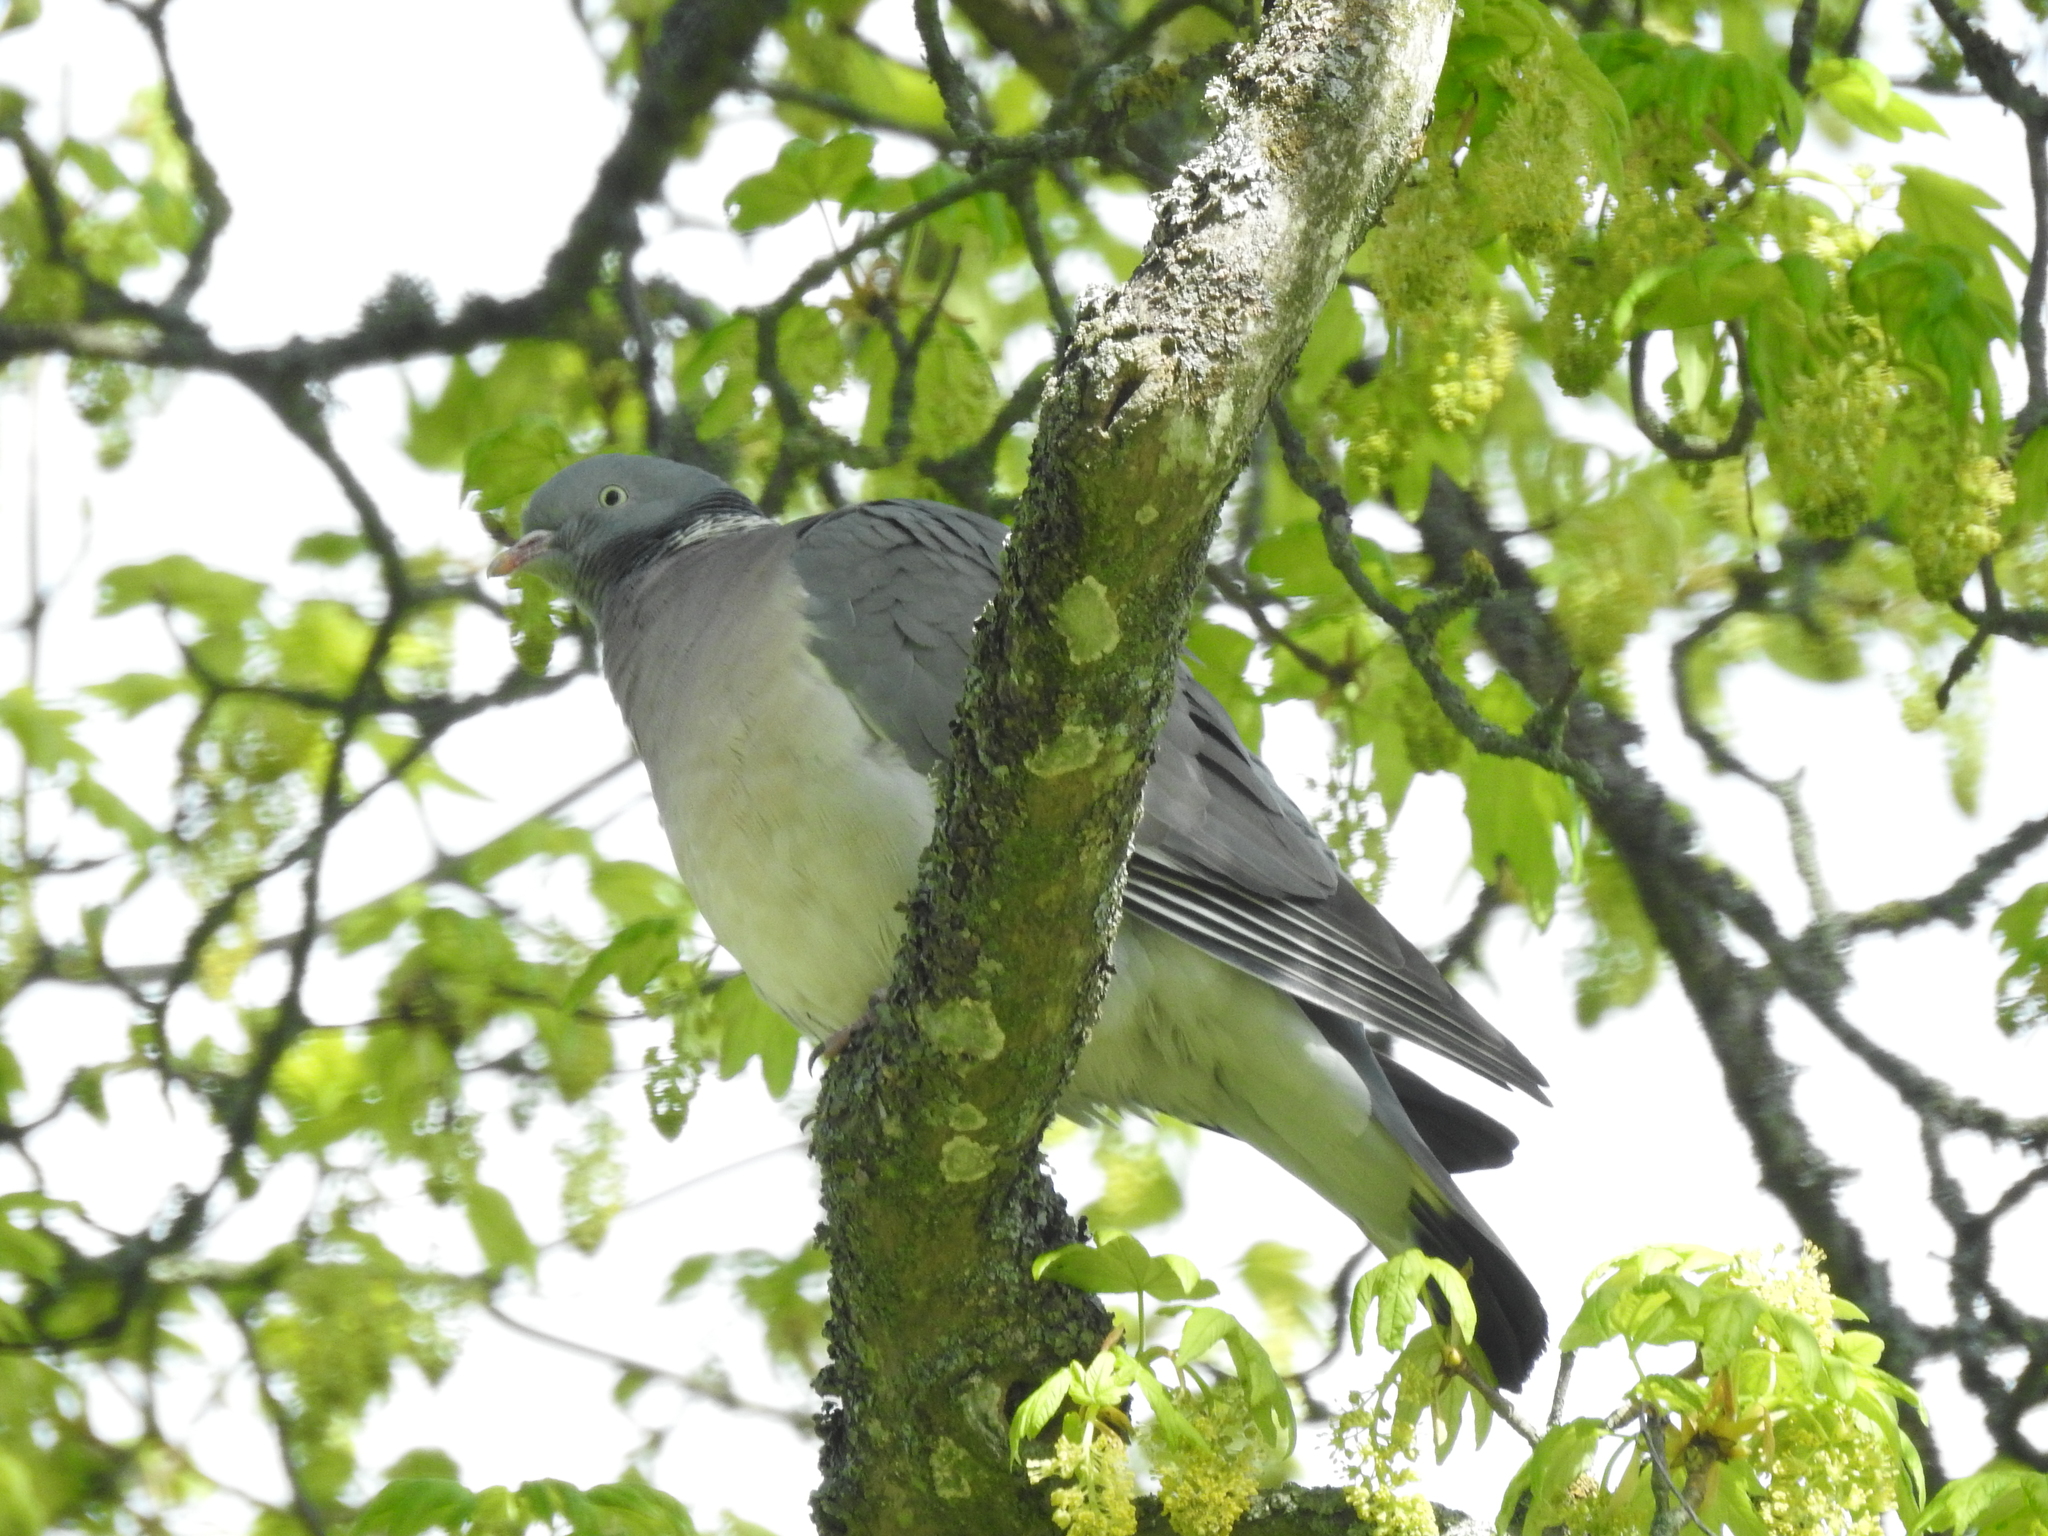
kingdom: Animalia
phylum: Chordata
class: Aves
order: Columbiformes
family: Columbidae
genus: Columba
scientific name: Columba palumbus
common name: Common wood pigeon
